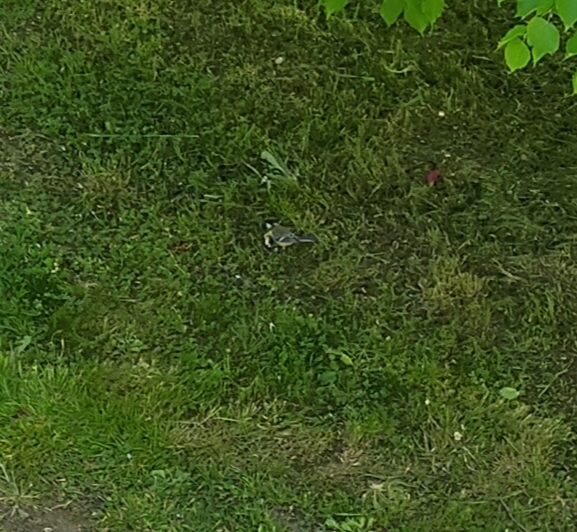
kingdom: Animalia
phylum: Chordata
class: Aves
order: Passeriformes
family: Paridae
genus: Parus
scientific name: Parus major
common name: Great tit
